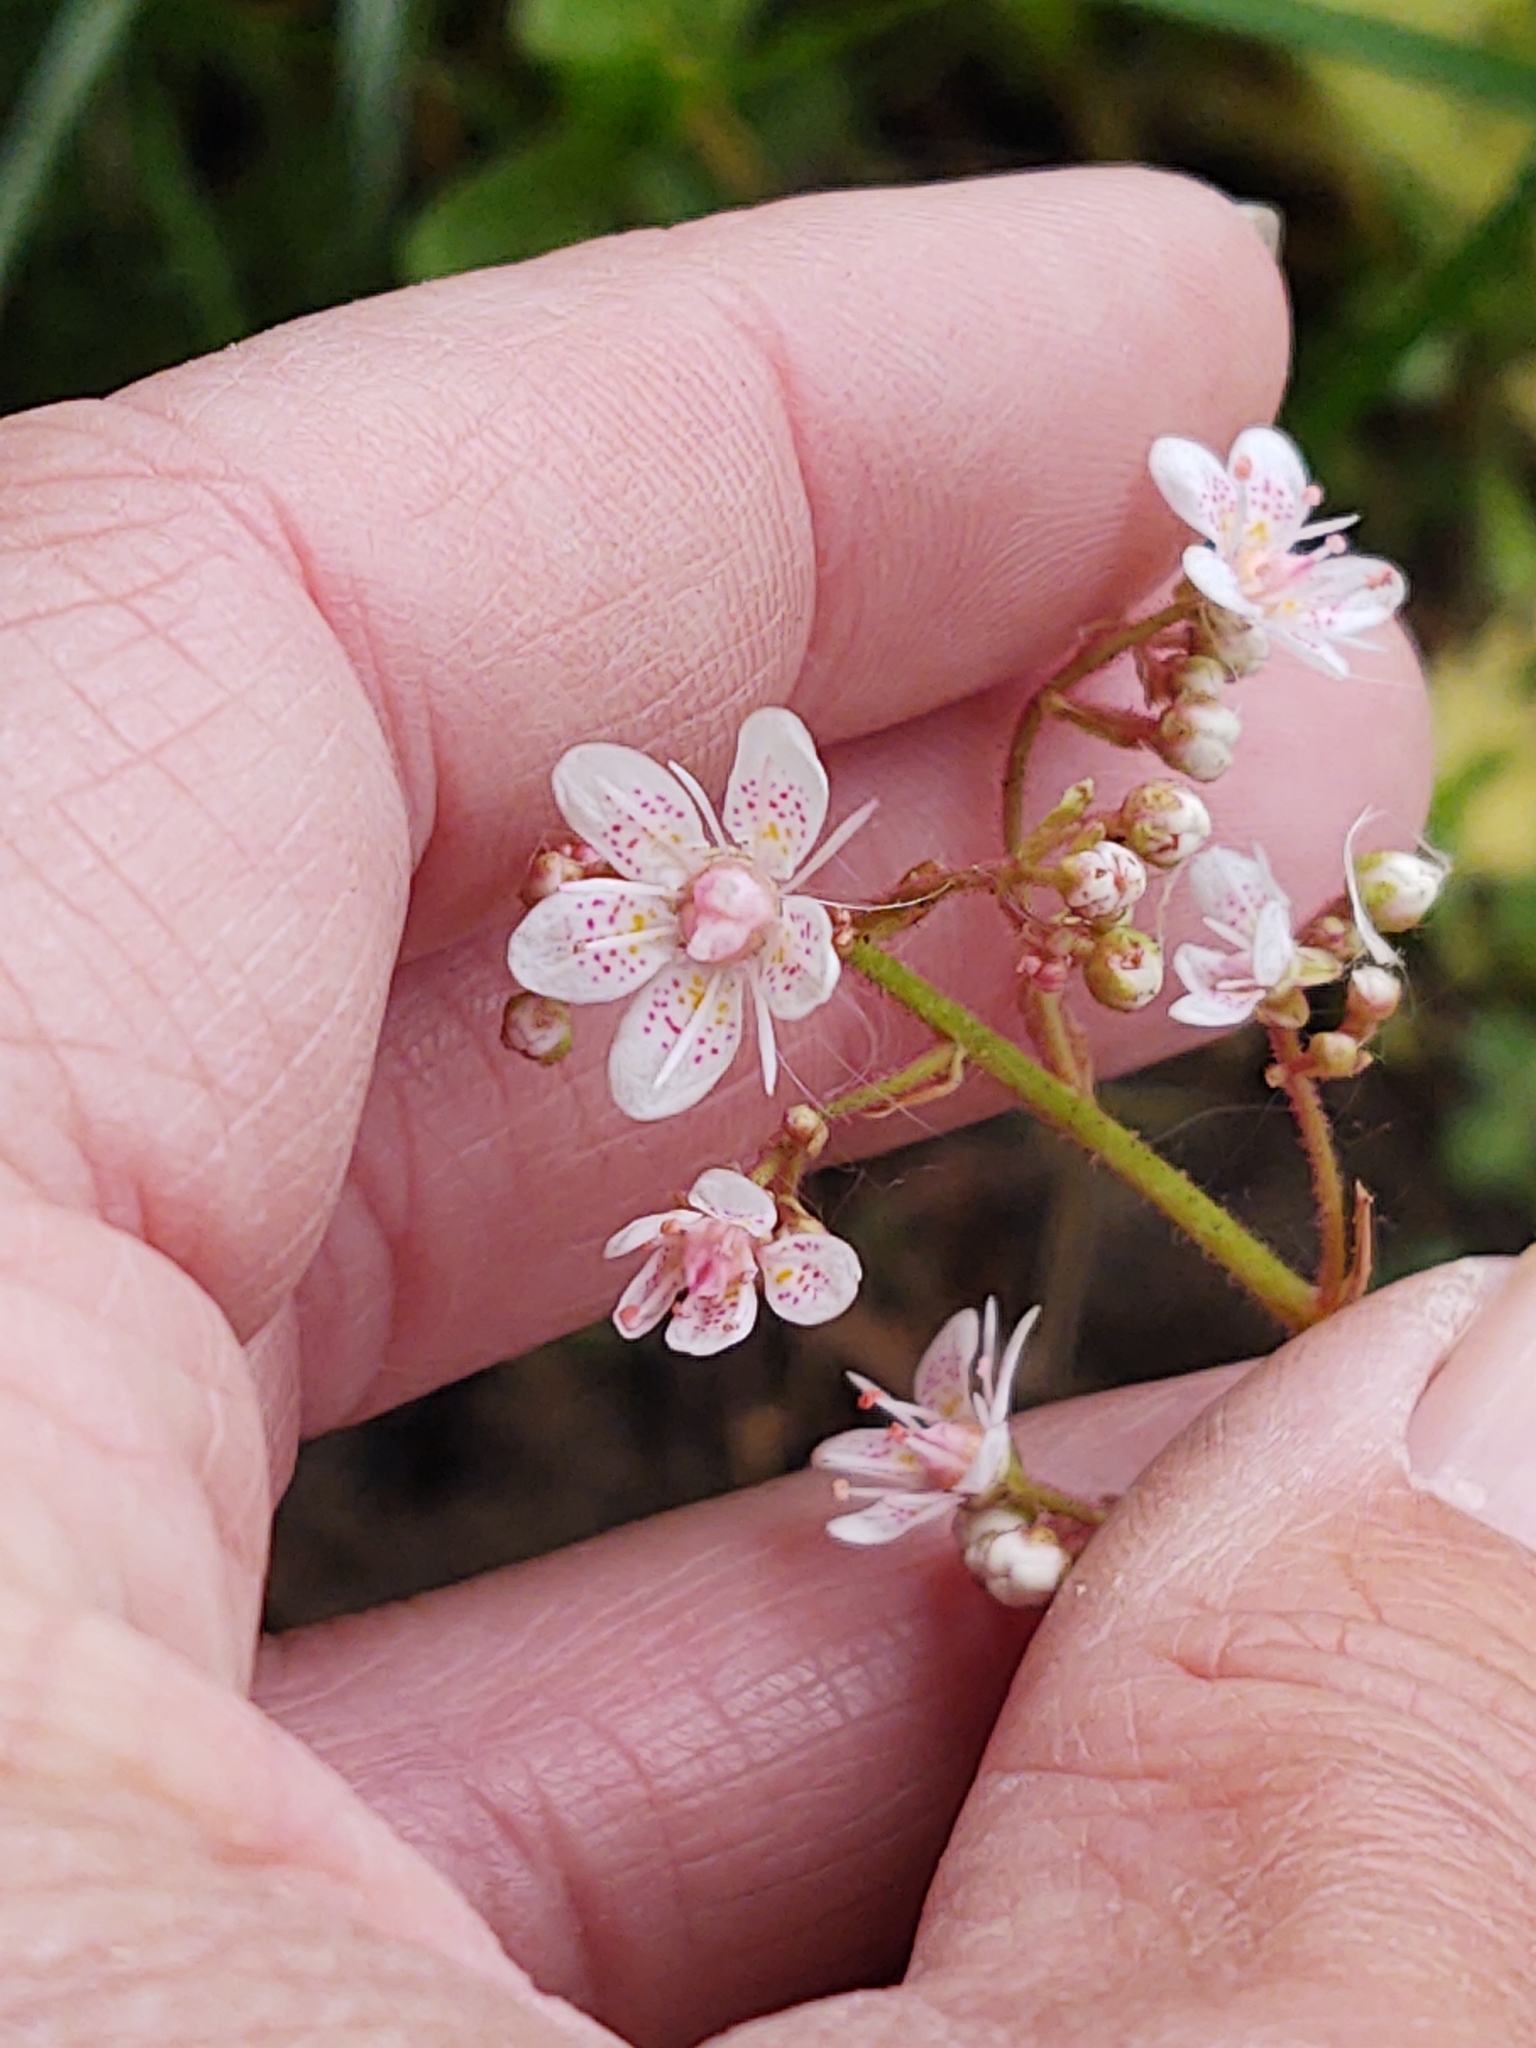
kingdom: Plantae
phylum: Tracheophyta
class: Magnoliopsida
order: Saxifragales
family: Saxifragaceae
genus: Saxifraga
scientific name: Saxifraga urbium
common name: Londonpride
